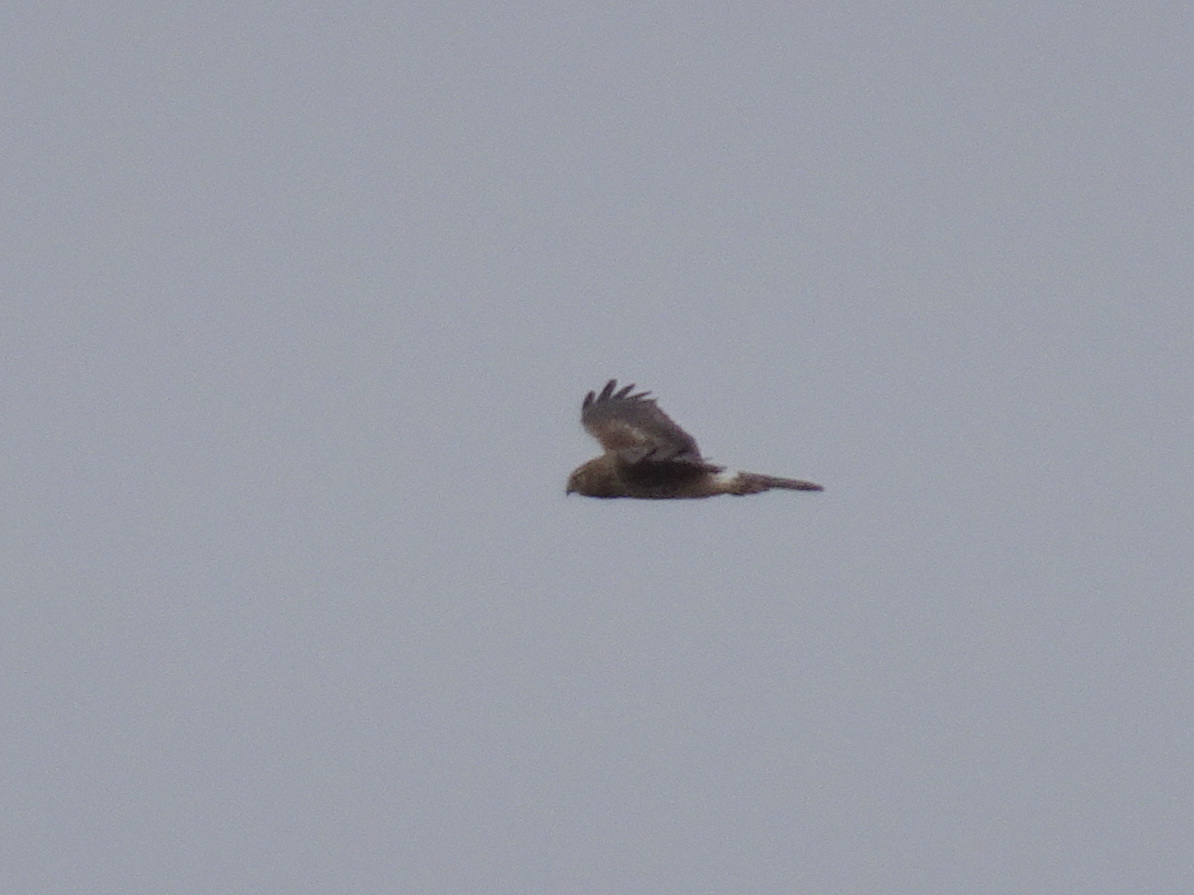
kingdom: Animalia
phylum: Chordata
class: Aves
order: Accipitriformes
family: Accipitridae
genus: Circus
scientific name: Circus cyaneus
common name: Hen harrier
